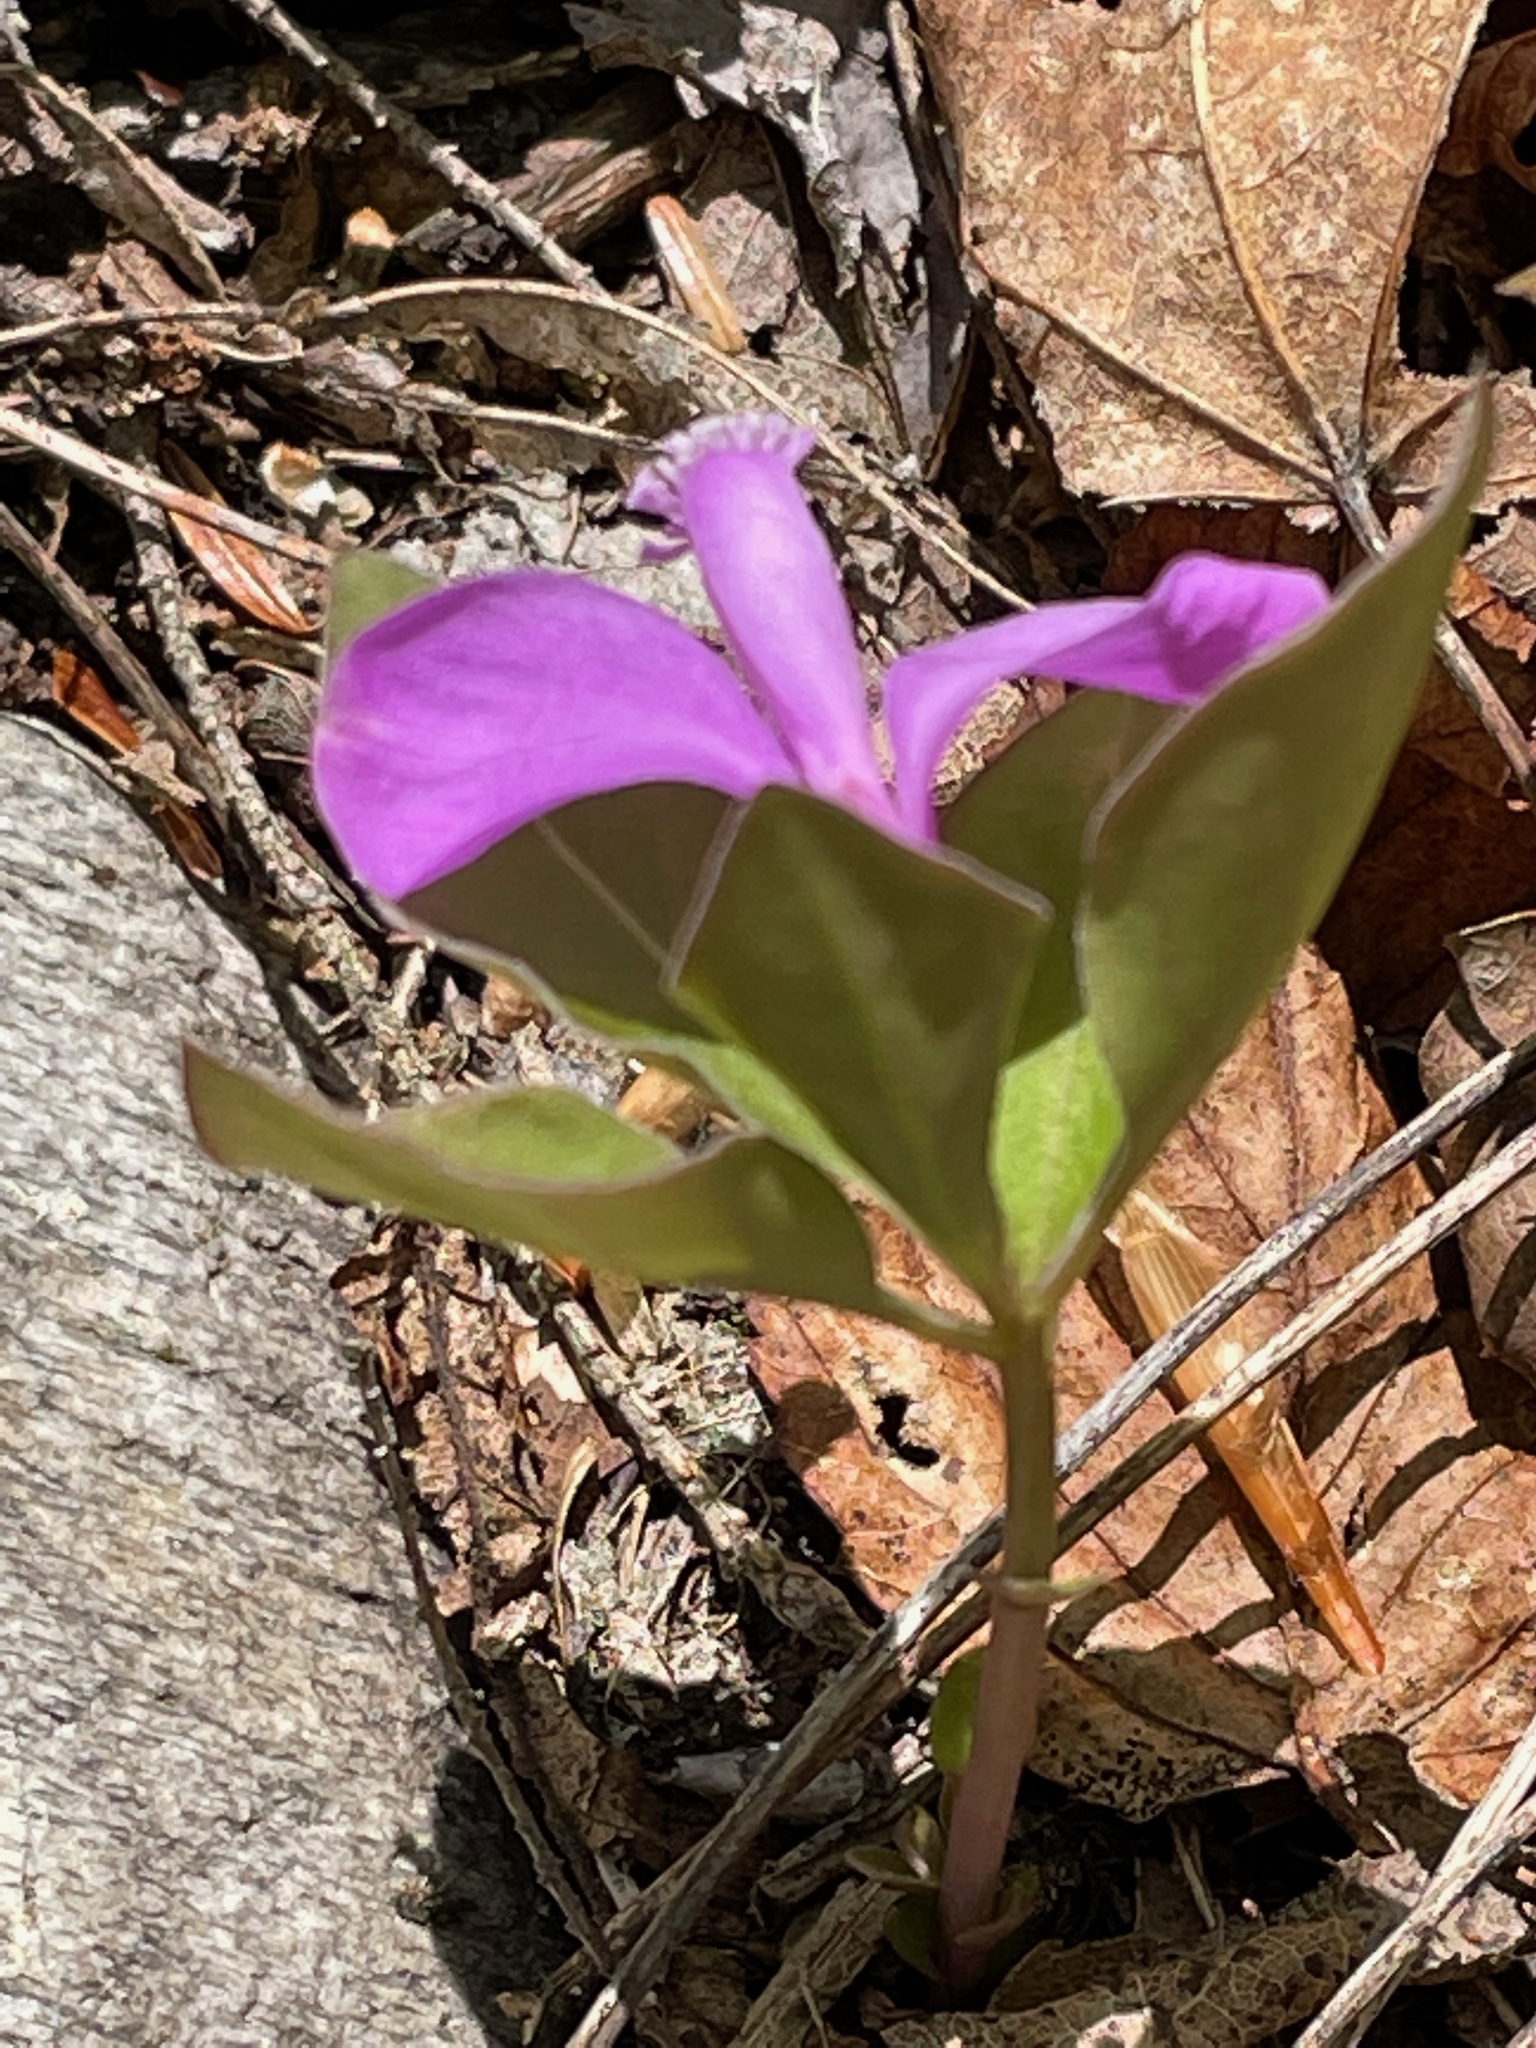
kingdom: Plantae
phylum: Tracheophyta
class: Magnoliopsida
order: Fabales
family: Polygalaceae
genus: Polygaloides
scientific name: Polygaloides paucifolia
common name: Bird-on-the-wing
